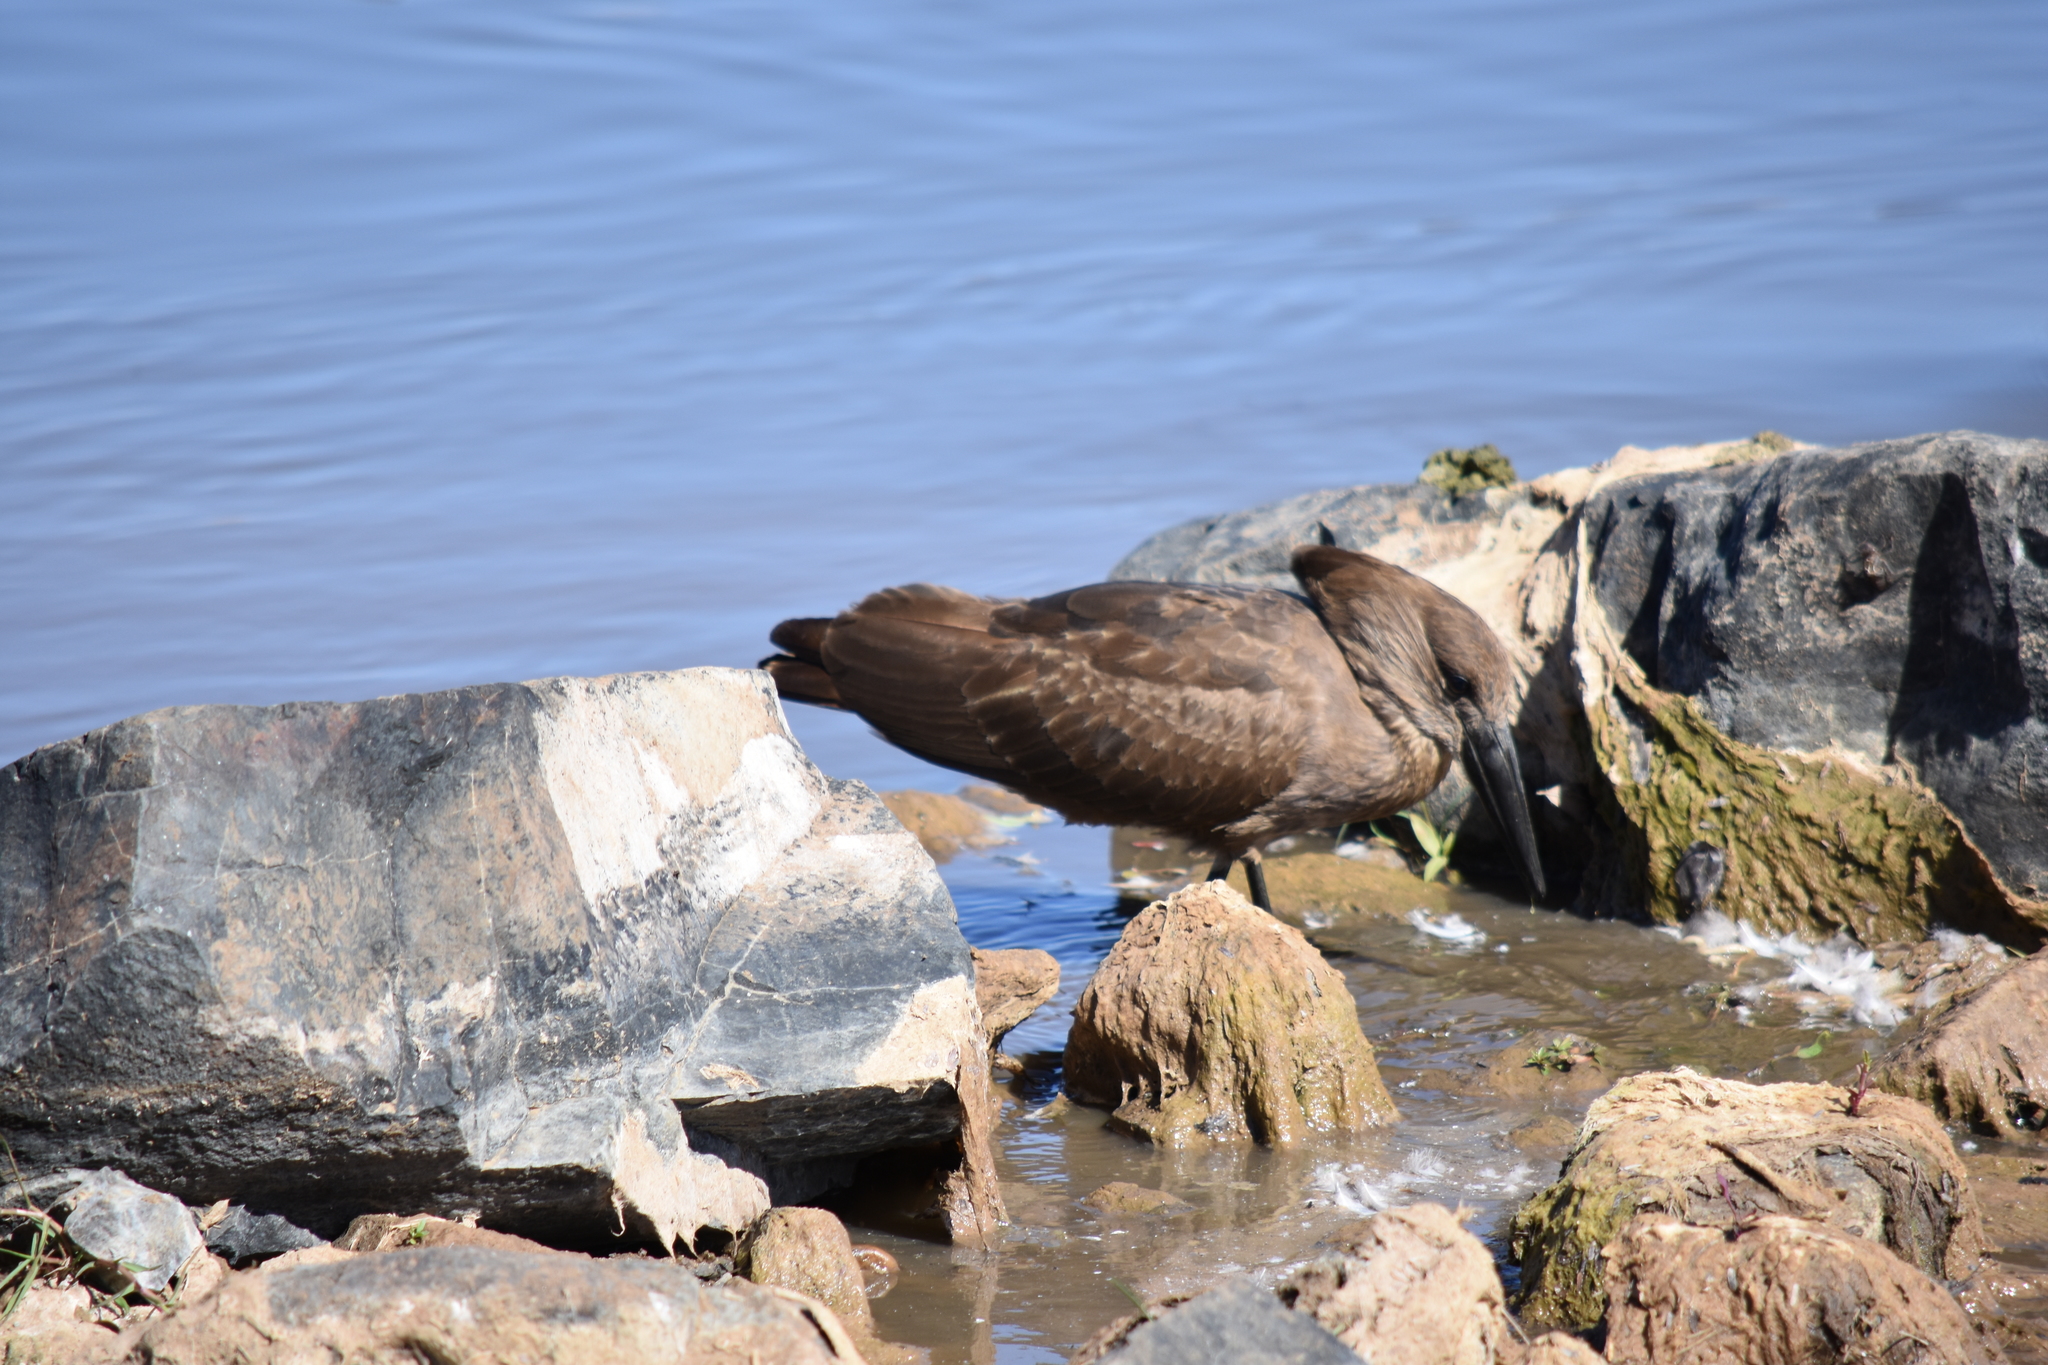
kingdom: Animalia
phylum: Chordata
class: Aves
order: Pelecaniformes
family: Scopidae
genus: Scopus
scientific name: Scopus umbretta
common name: Hamerkop
